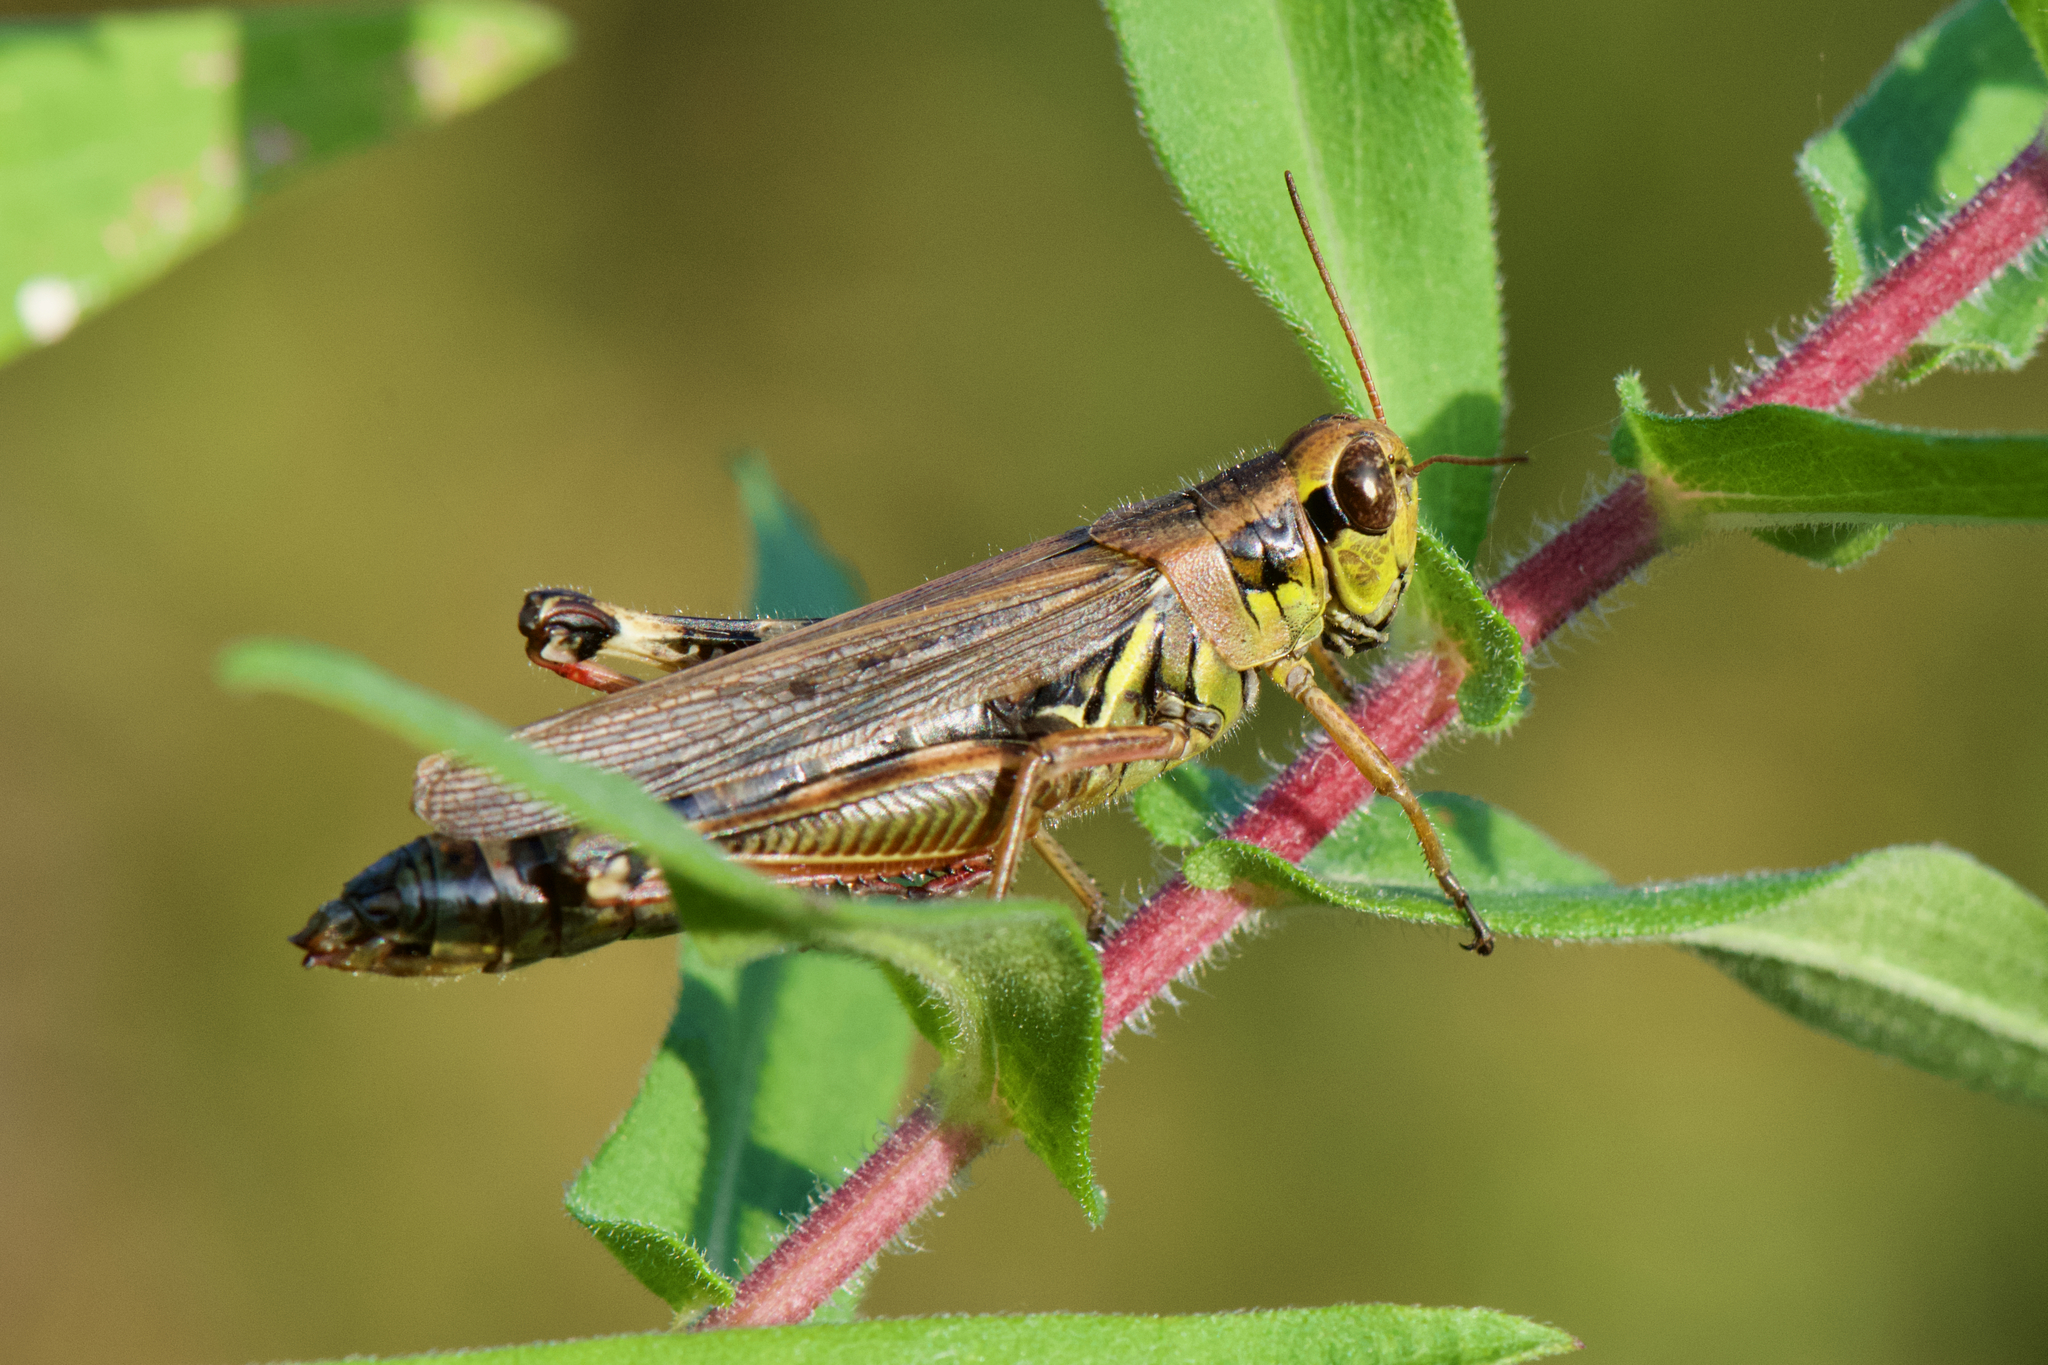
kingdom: Animalia
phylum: Arthropoda
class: Insecta
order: Orthoptera
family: Acrididae
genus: Melanoplus
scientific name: Melanoplus femurrubrum
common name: Red-legged grasshopper
